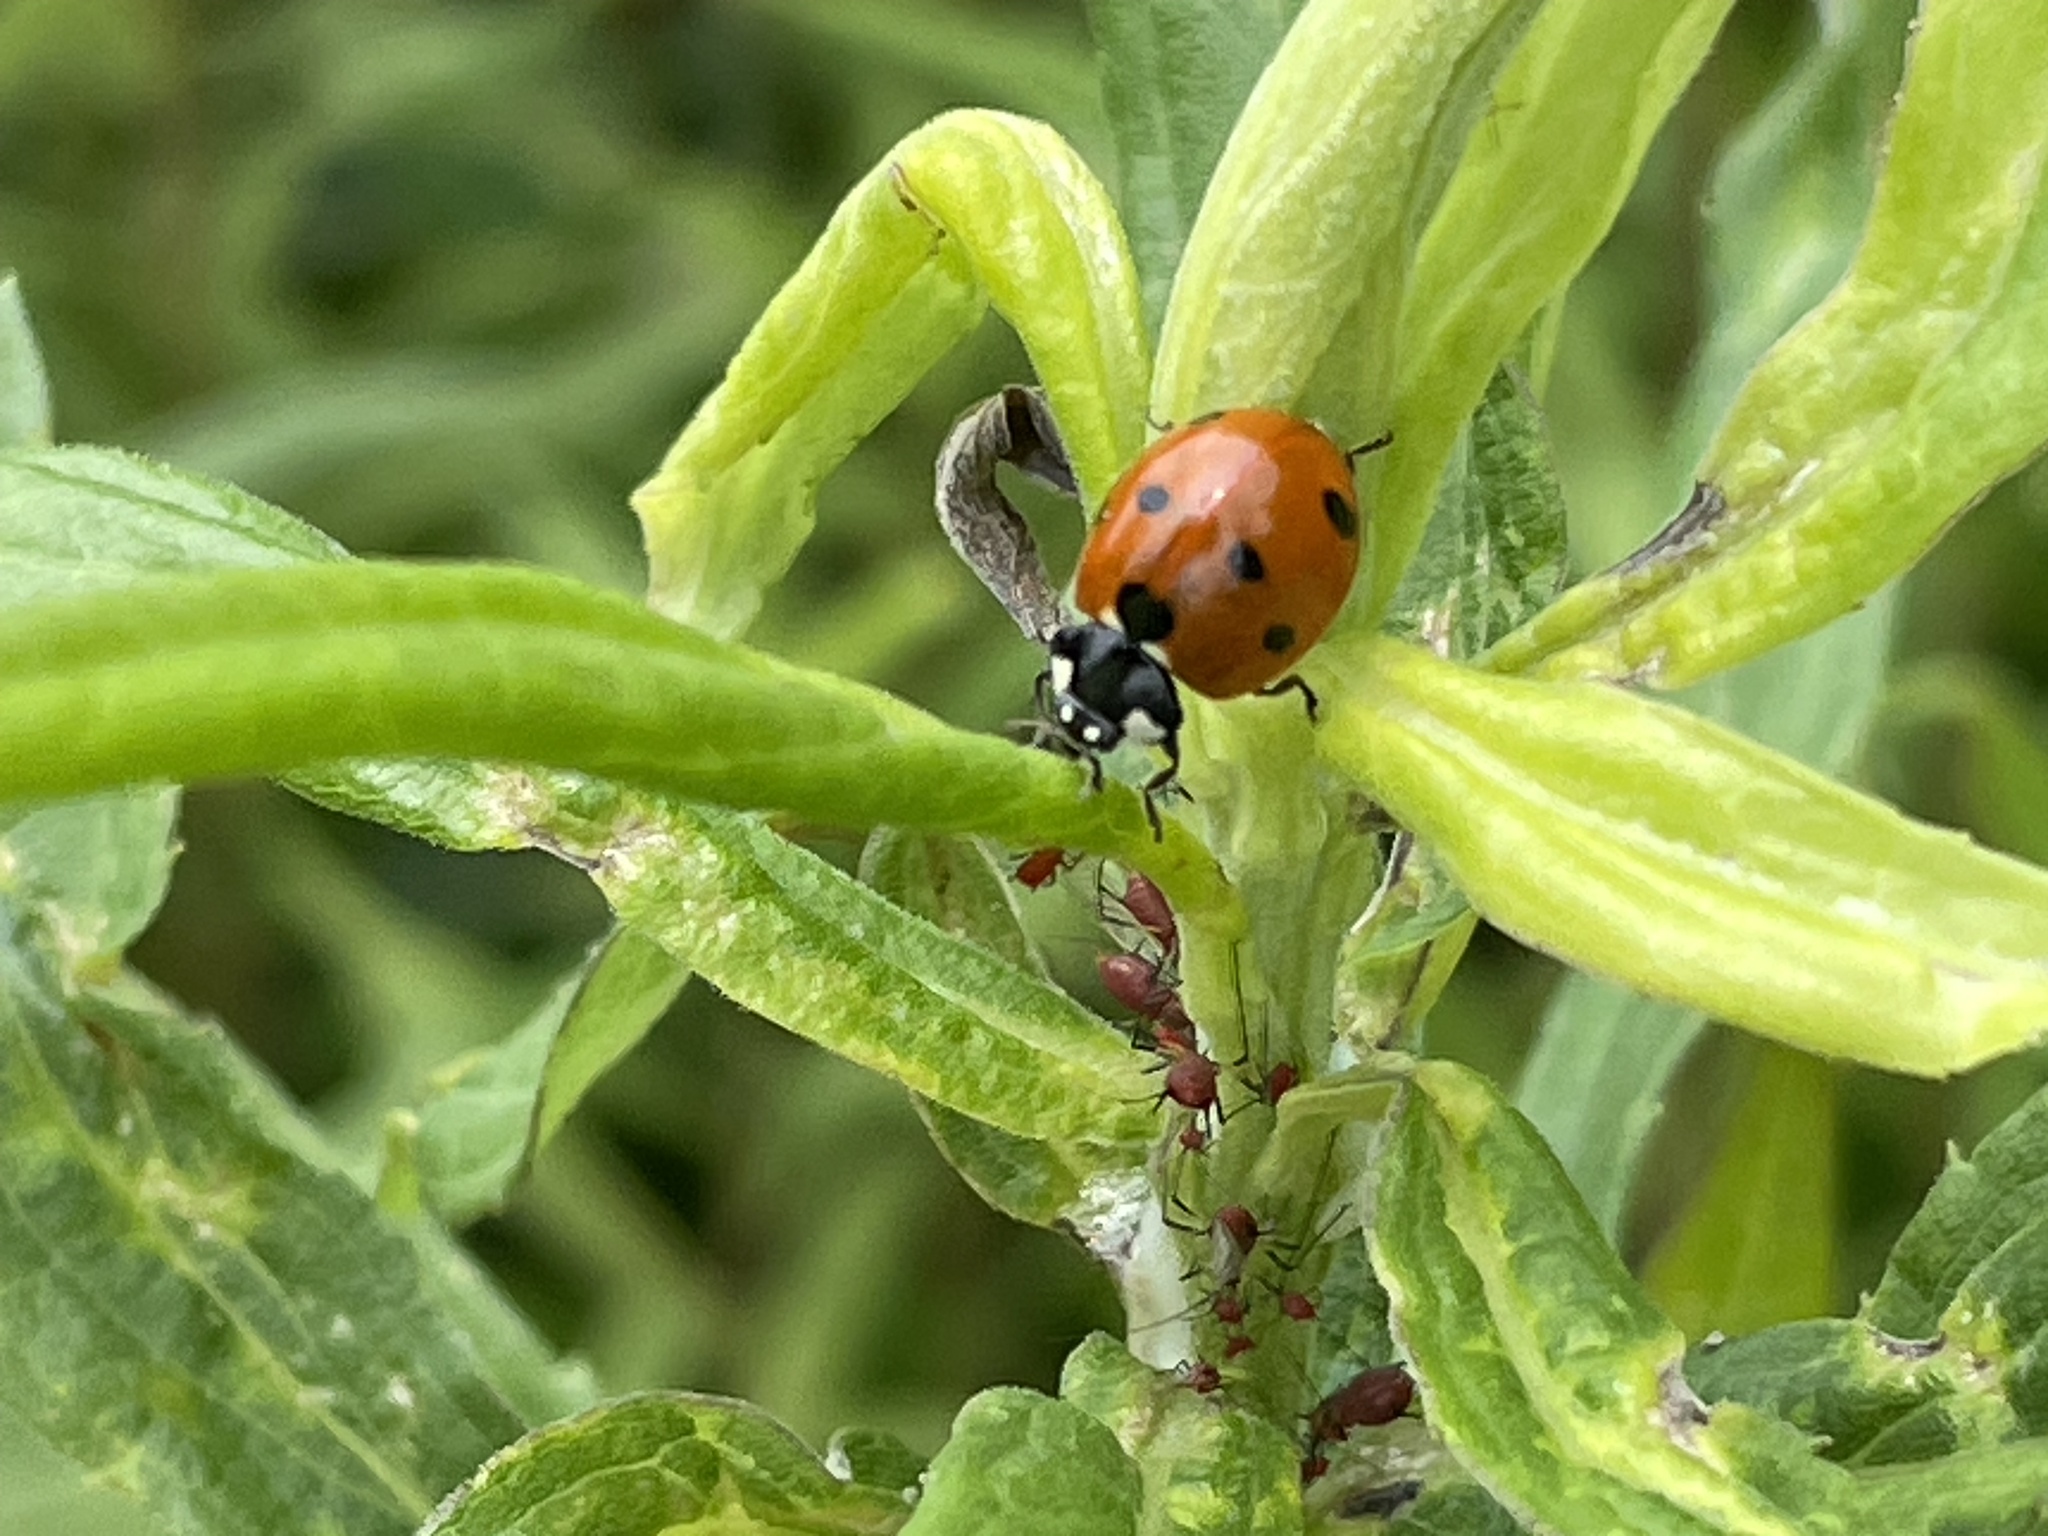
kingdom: Animalia
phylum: Arthropoda
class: Insecta
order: Coleoptera
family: Coccinellidae
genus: Coccinella
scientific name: Coccinella septempunctata
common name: Sevenspotted lady beetle
